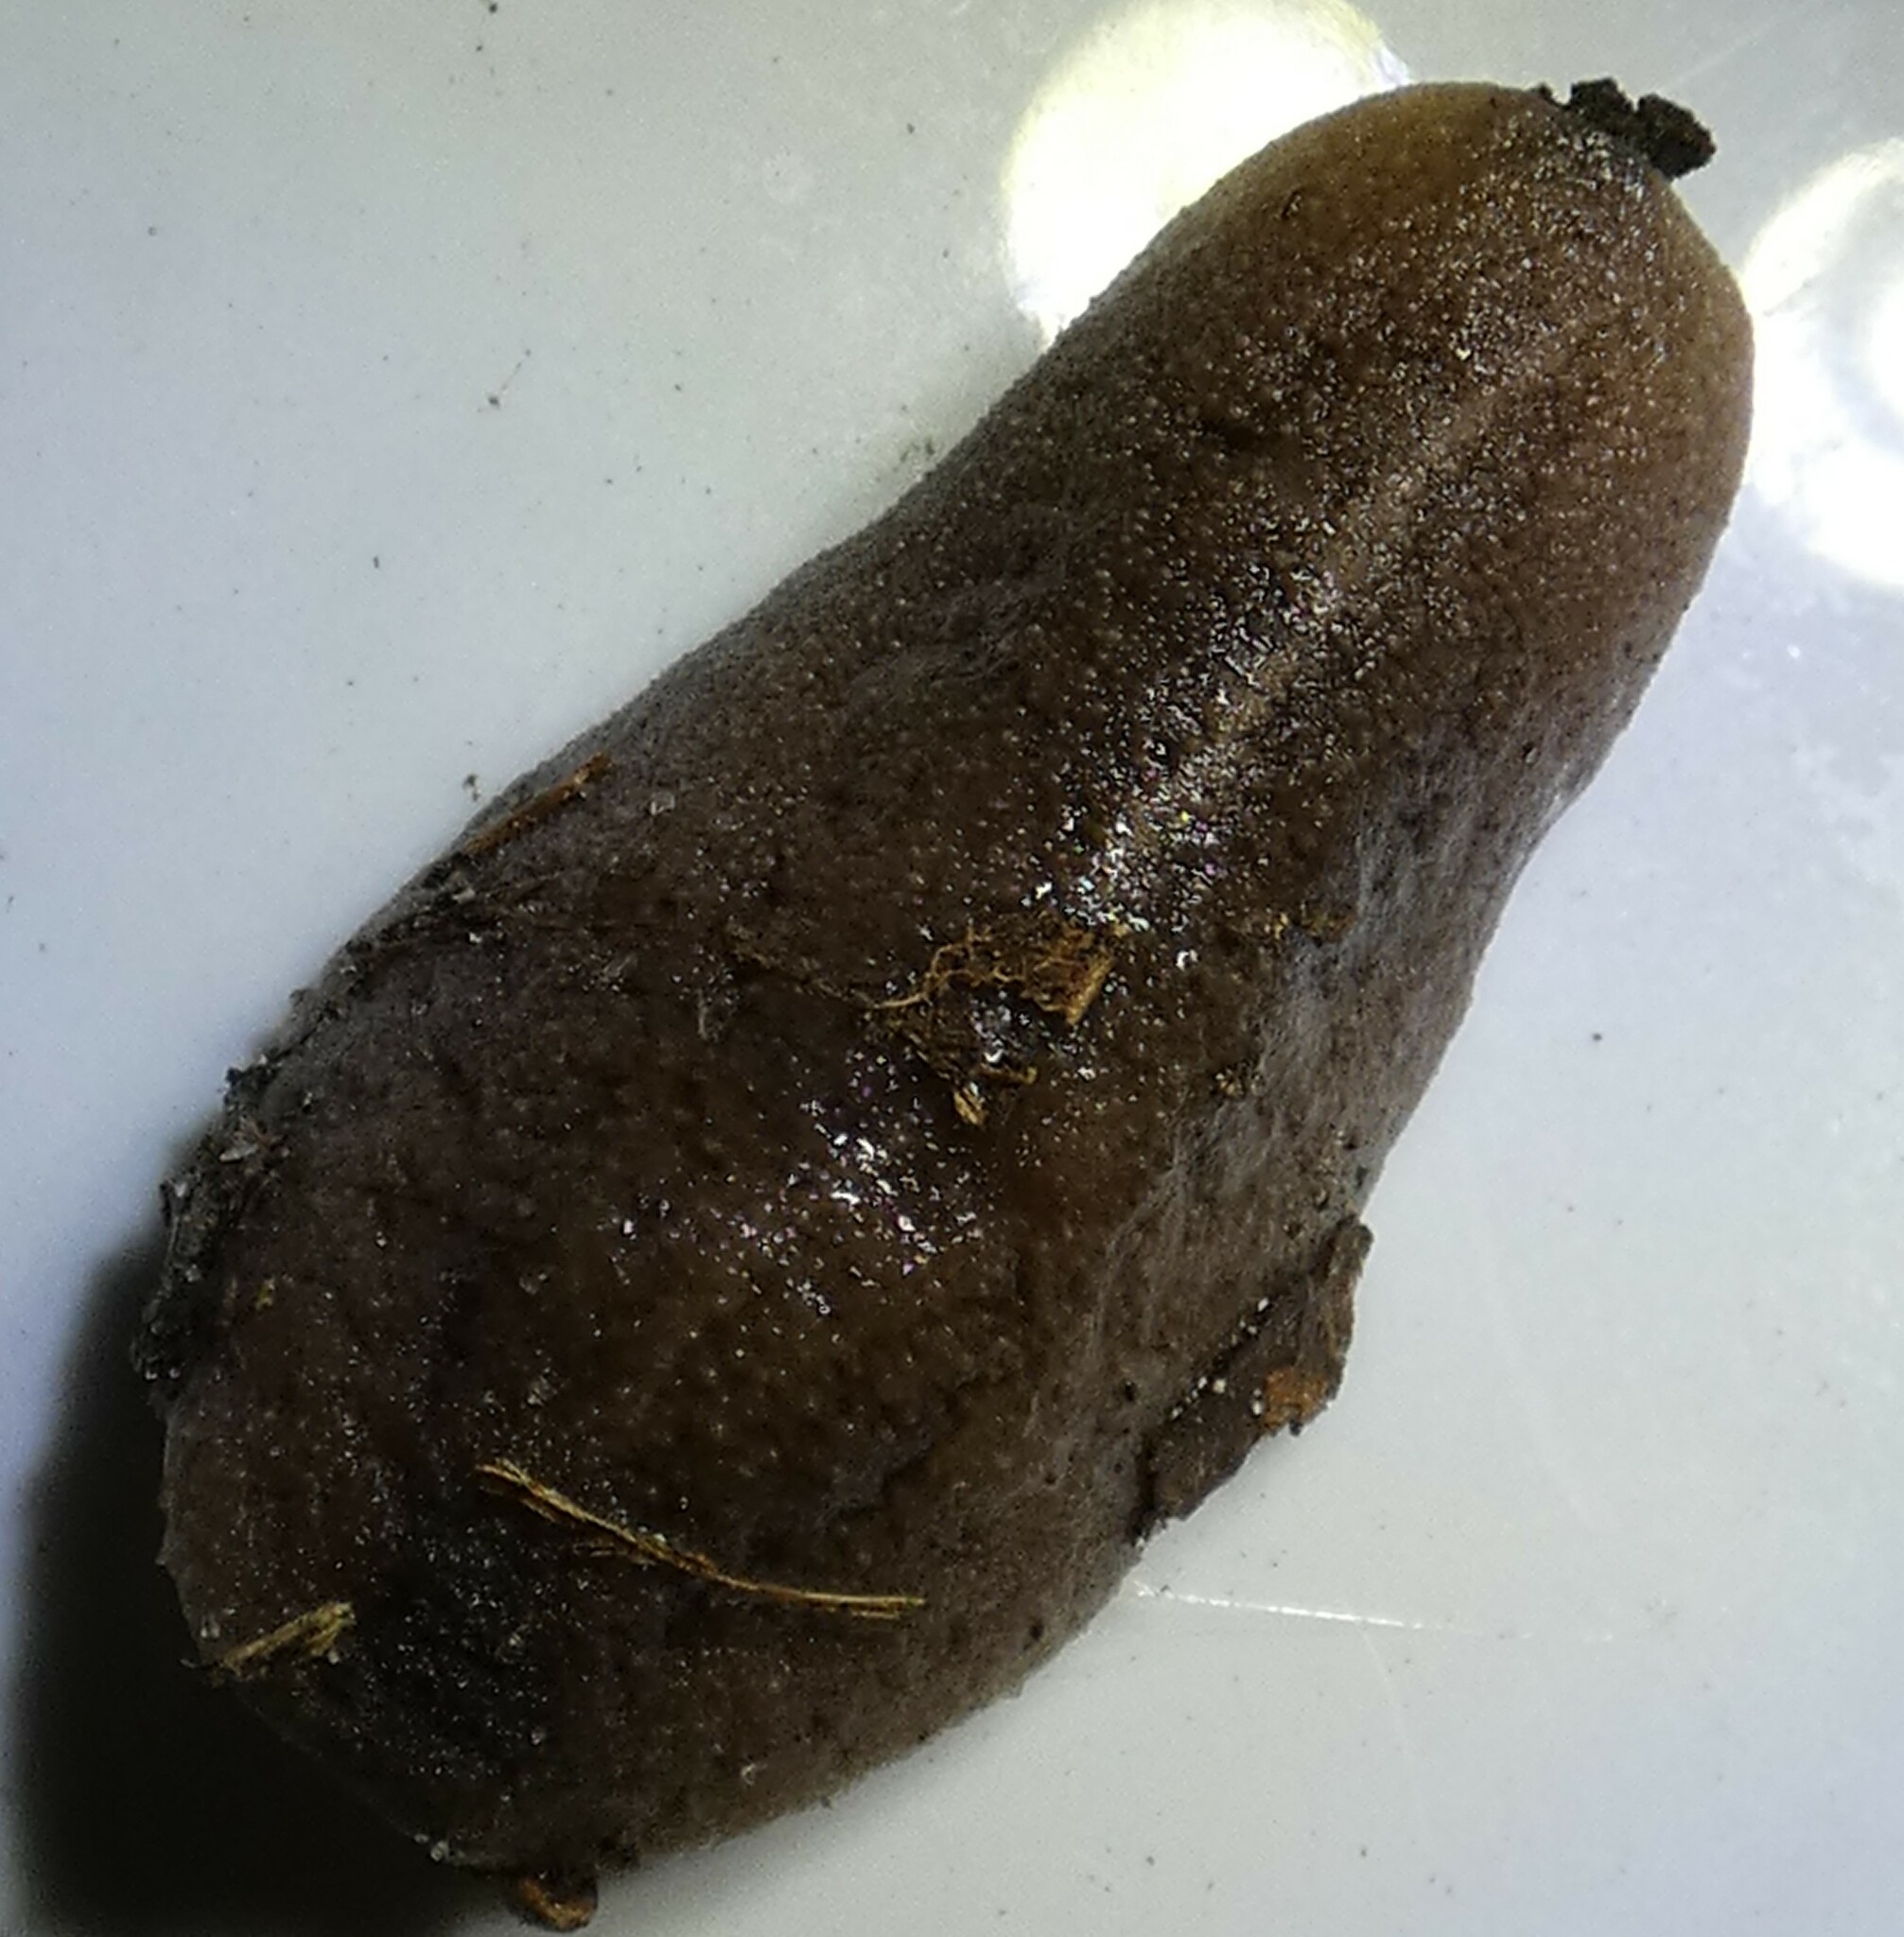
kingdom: Animalia
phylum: Mollusca
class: Gastropoda
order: Systellommatophora
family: Veronicellidae
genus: Leidyula
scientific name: Leidyula floridana
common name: Florida leatherleaf
